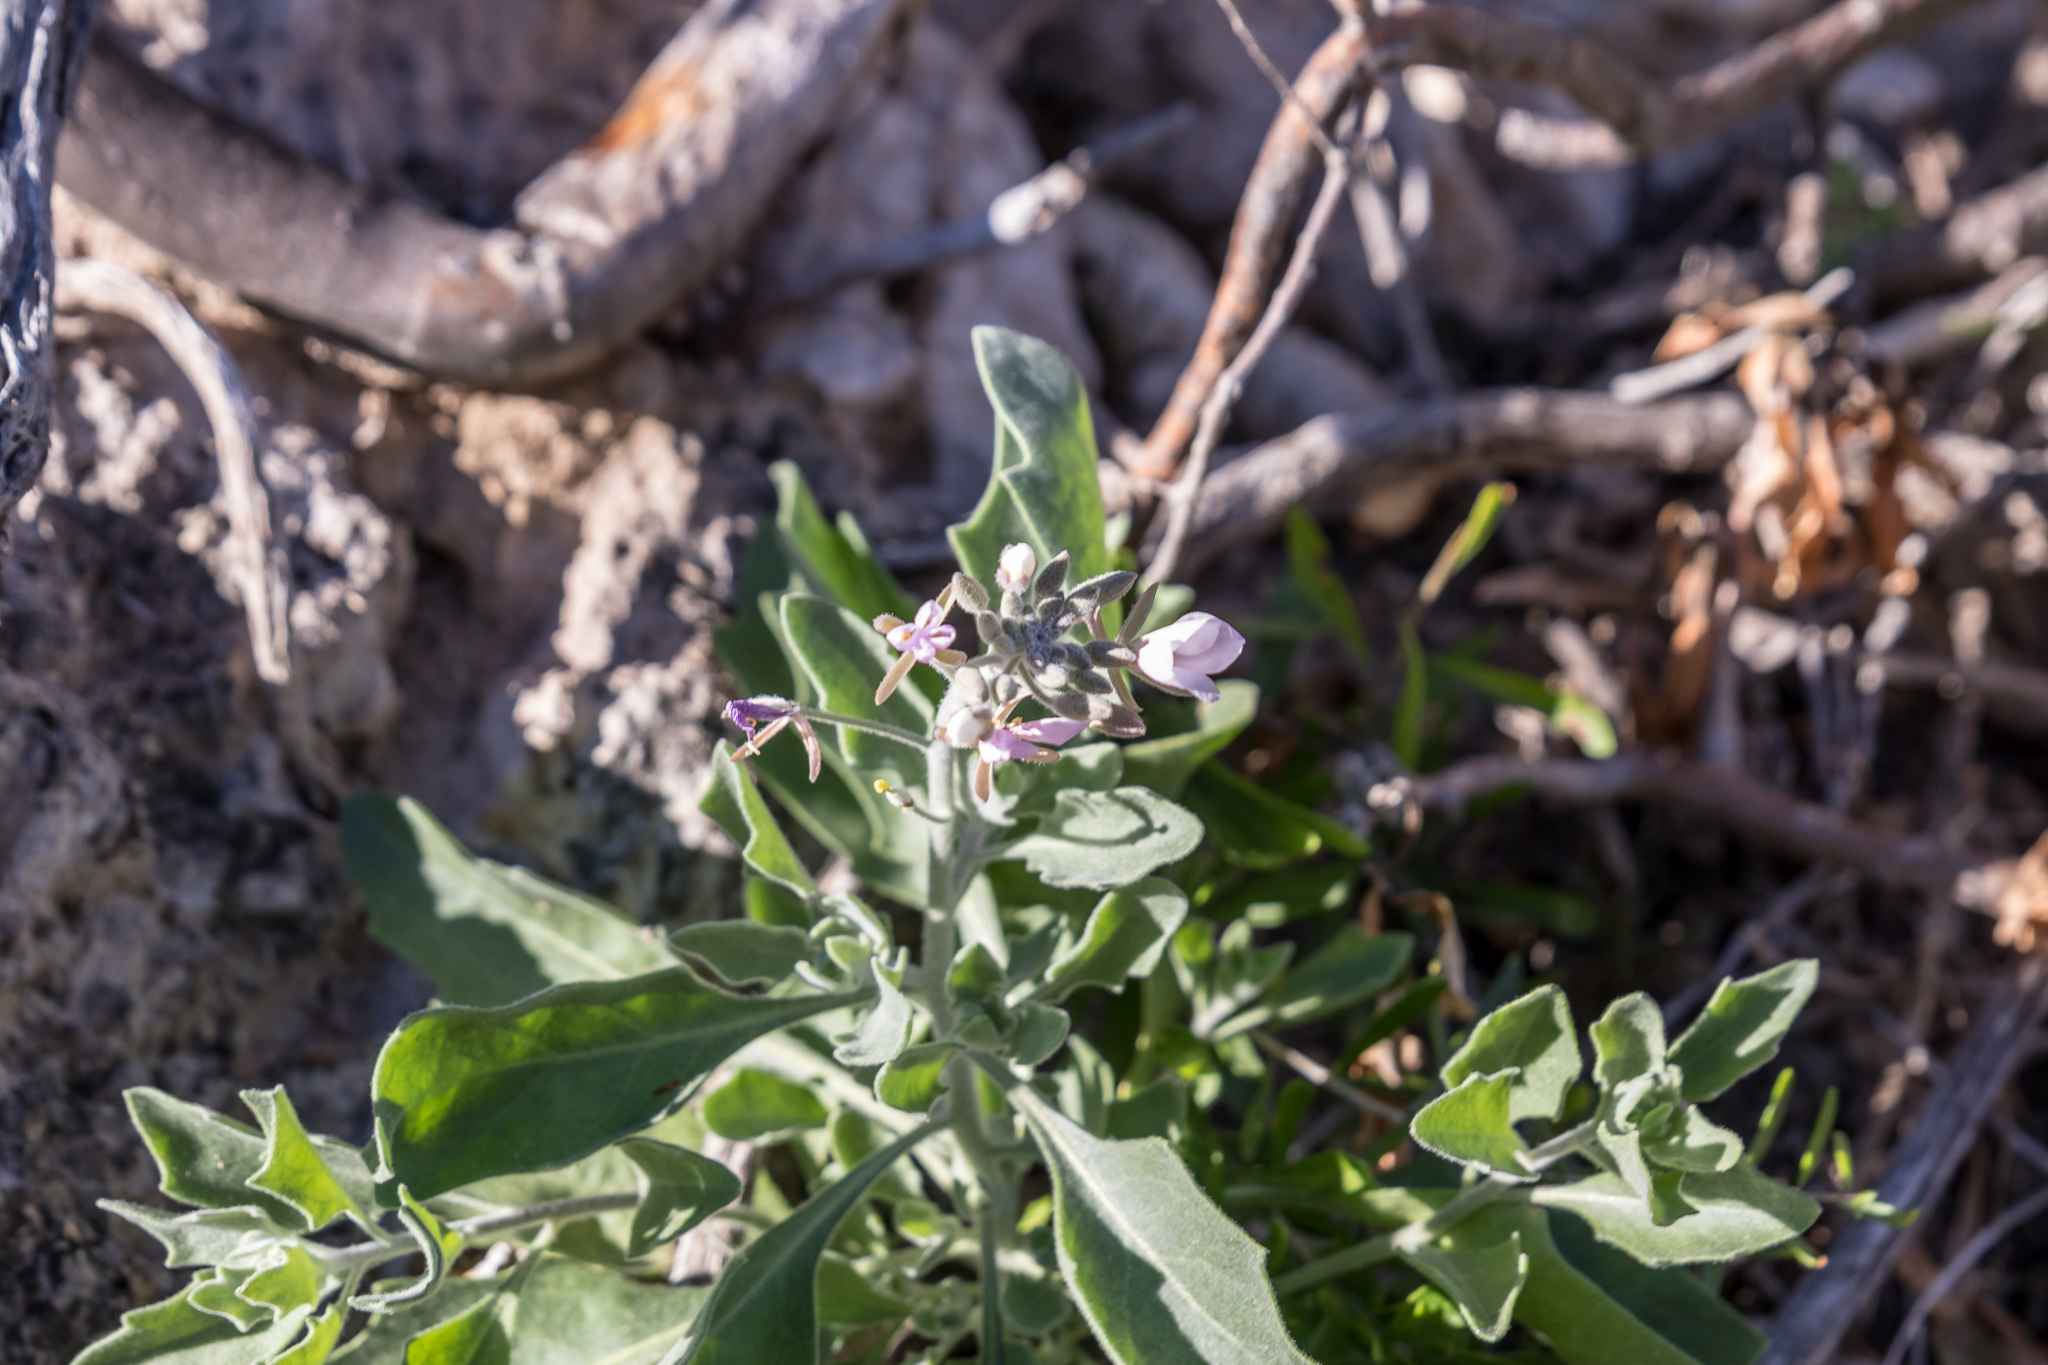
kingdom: Plantae
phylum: Tracheophyta
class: Magnoliopsida
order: Brassicales
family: Brassicaceae
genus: Nerisyrenia
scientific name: Nerisyrenia camporum
